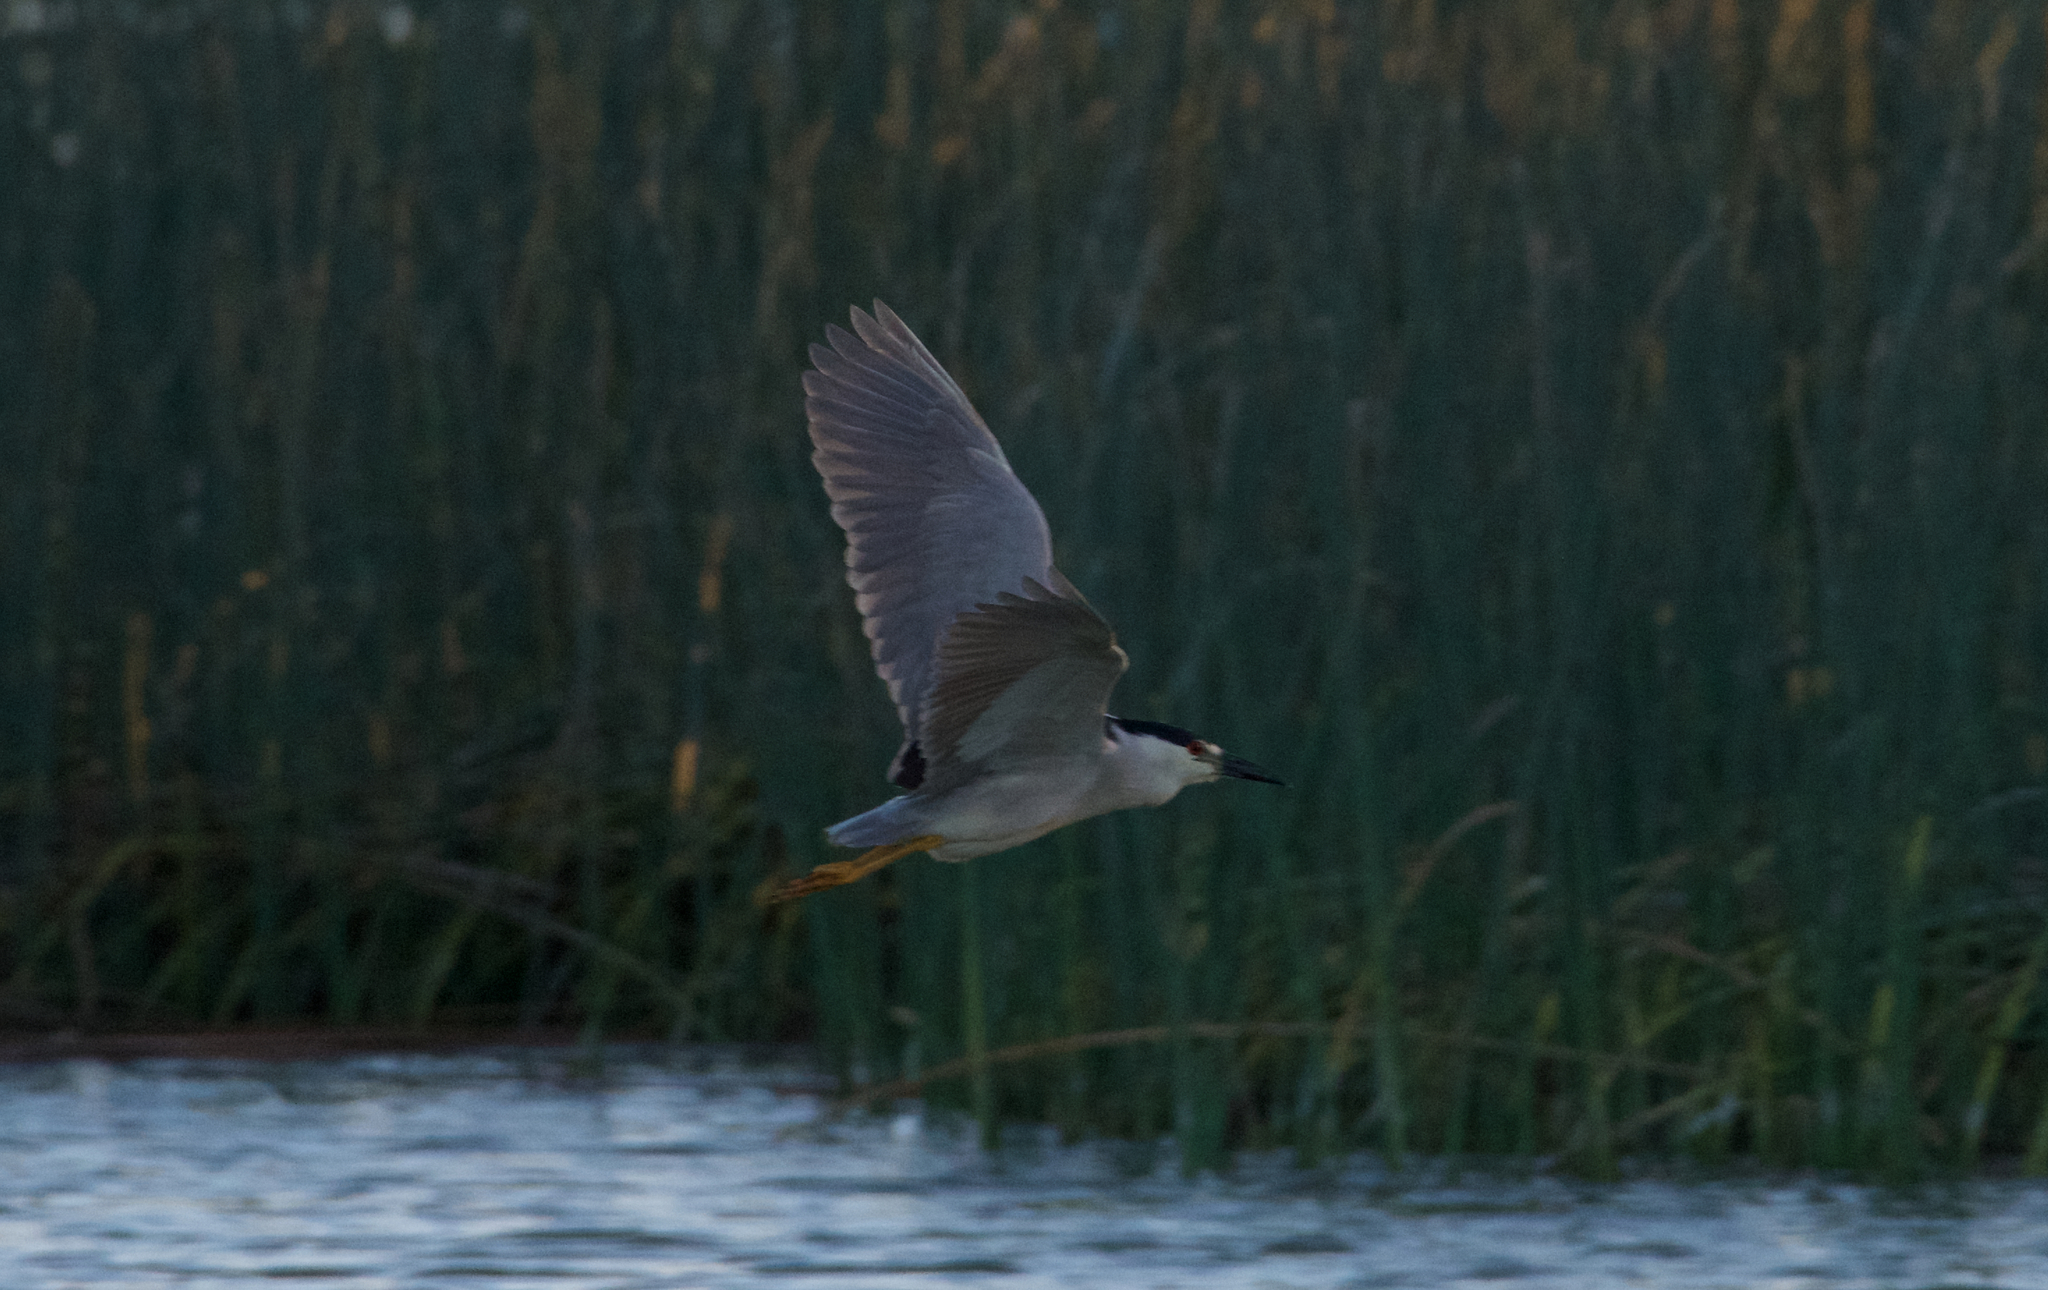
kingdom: Animalia
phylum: Chordata
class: Aves
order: Pelecaniformes
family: Ardeidae
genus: Nycticorax
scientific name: Nycticorax nycticorax
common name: Black-crowned night heron
